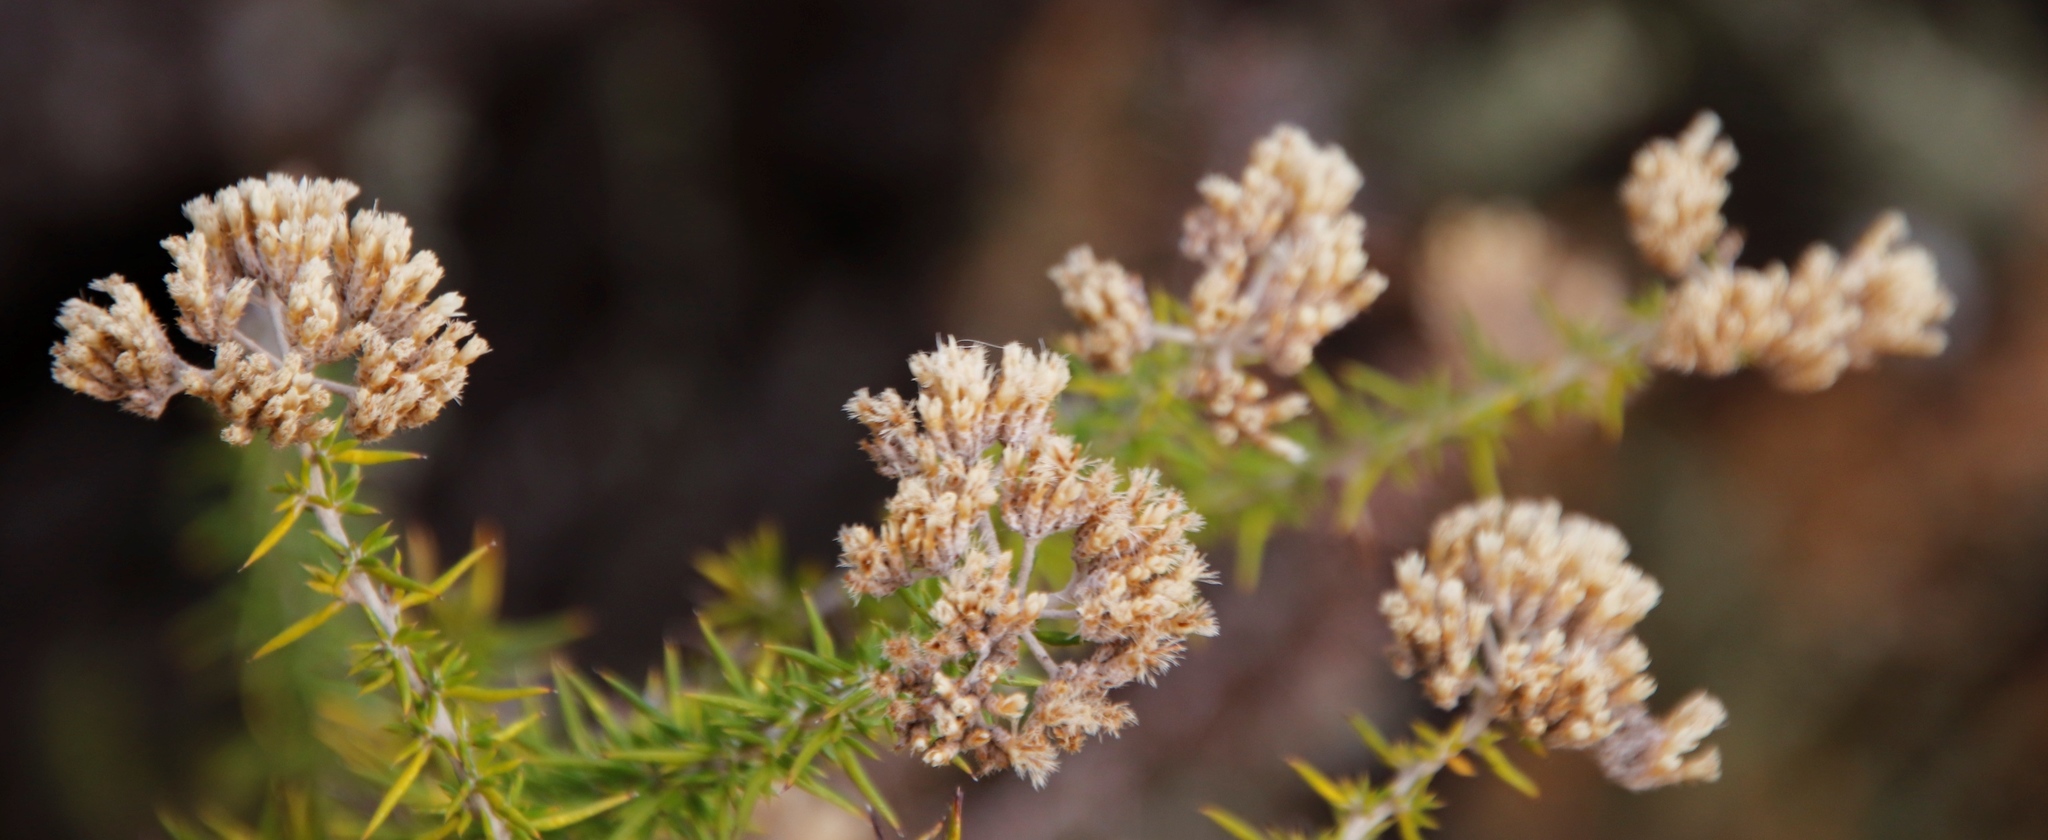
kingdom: Plantae
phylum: Tracheophyta
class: Magnoliopsida
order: Asterales
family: Asteraceae
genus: Metalasia
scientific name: Metalasia dregeana
